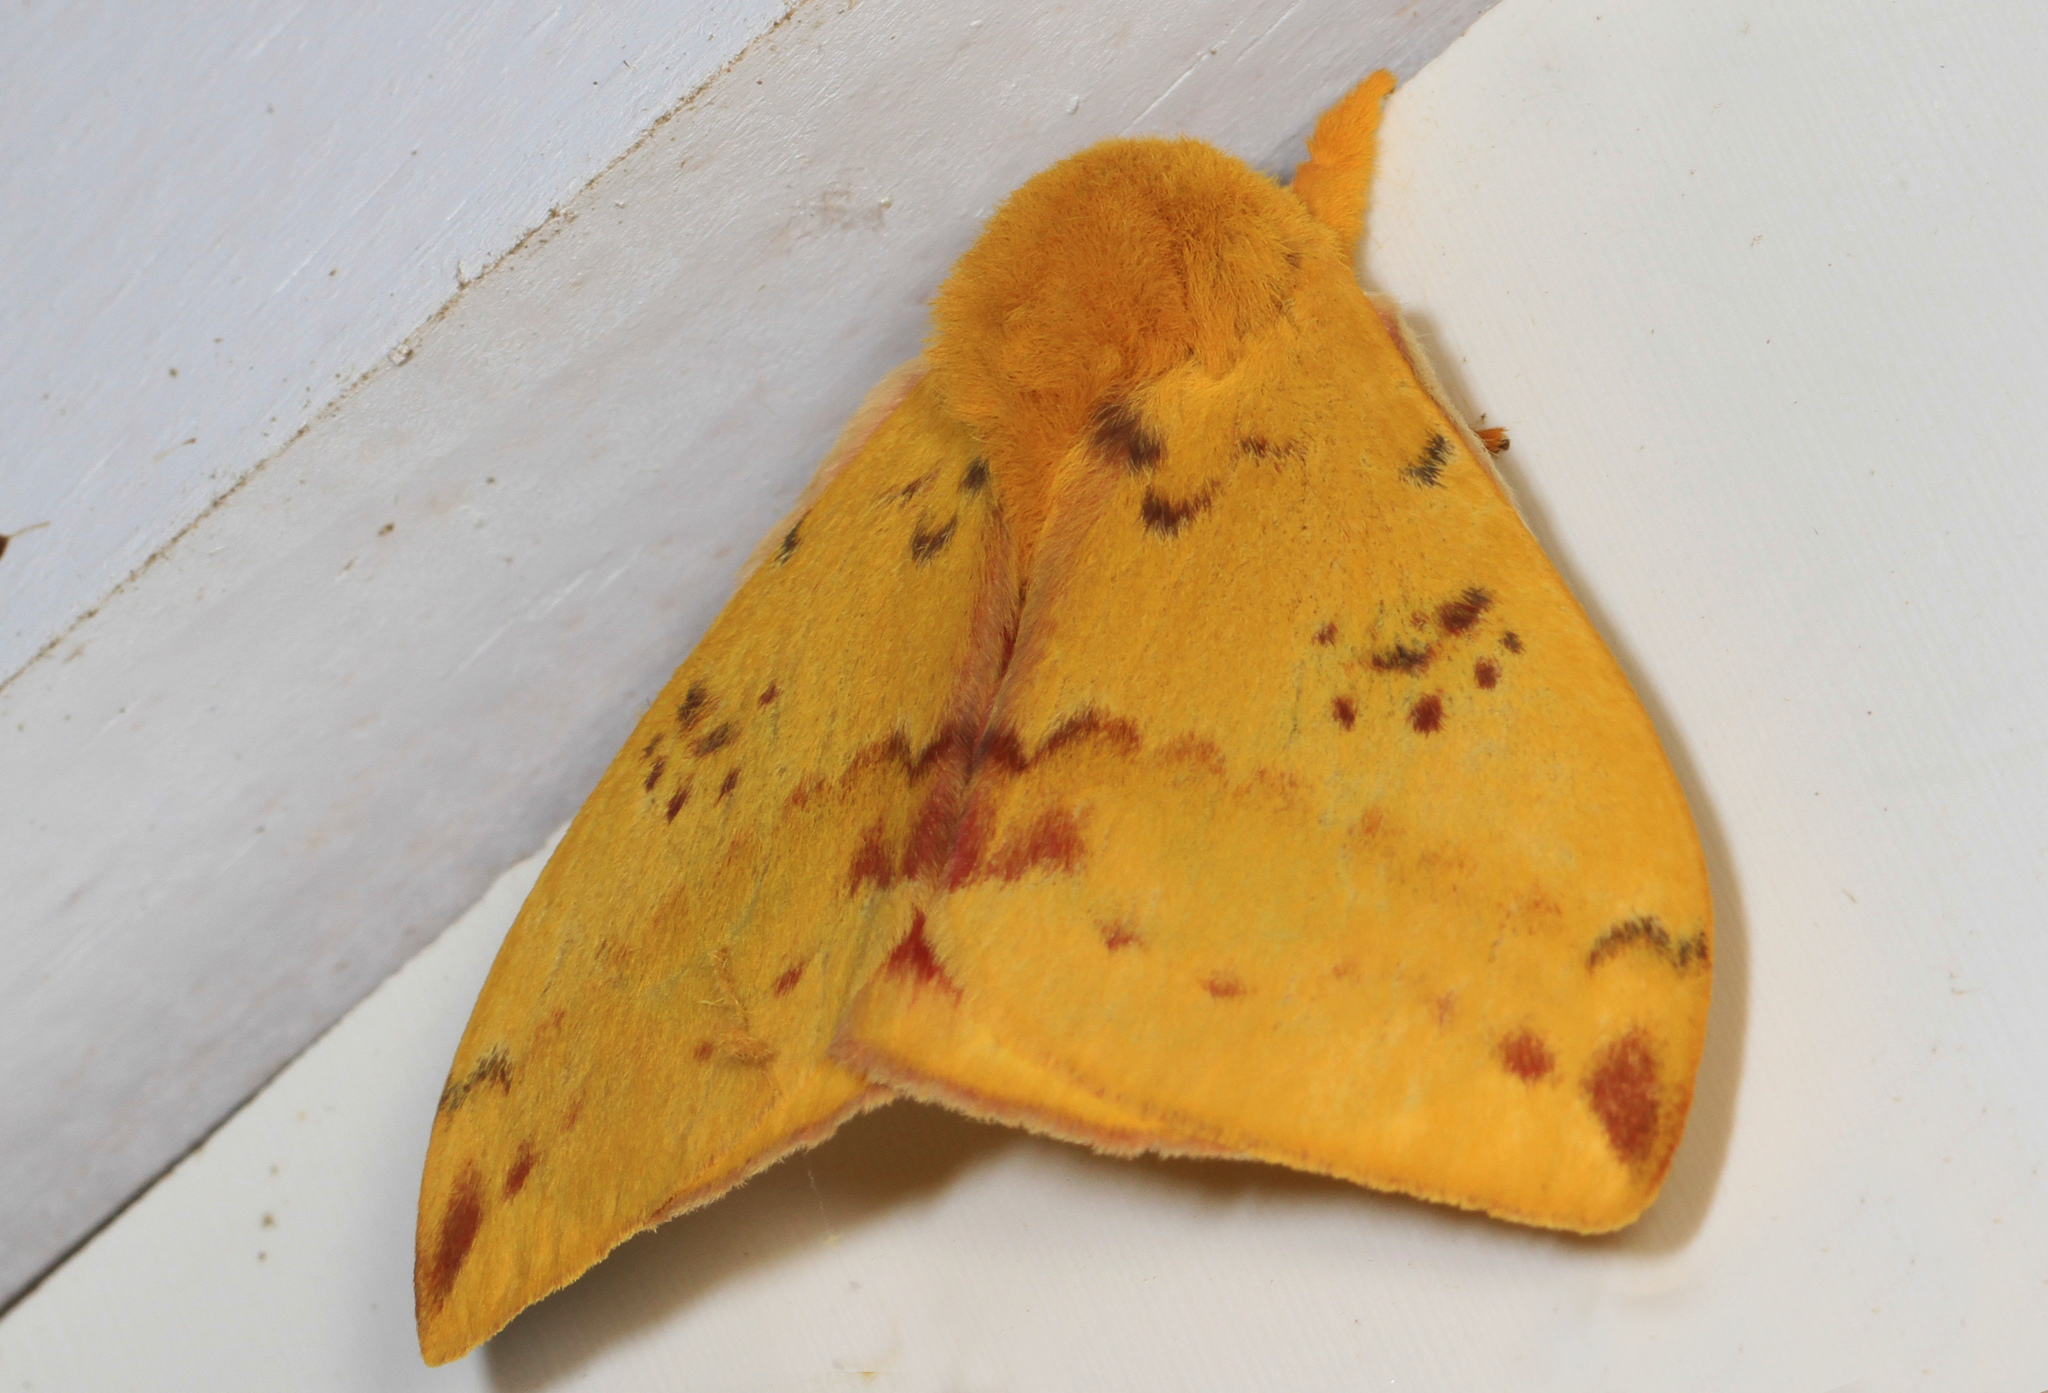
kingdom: Animalia
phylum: Arthropoda
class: Insecta
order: Lepidoptera
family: Saturniidae
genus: Automeris
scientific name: Automeris io
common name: Io moth
